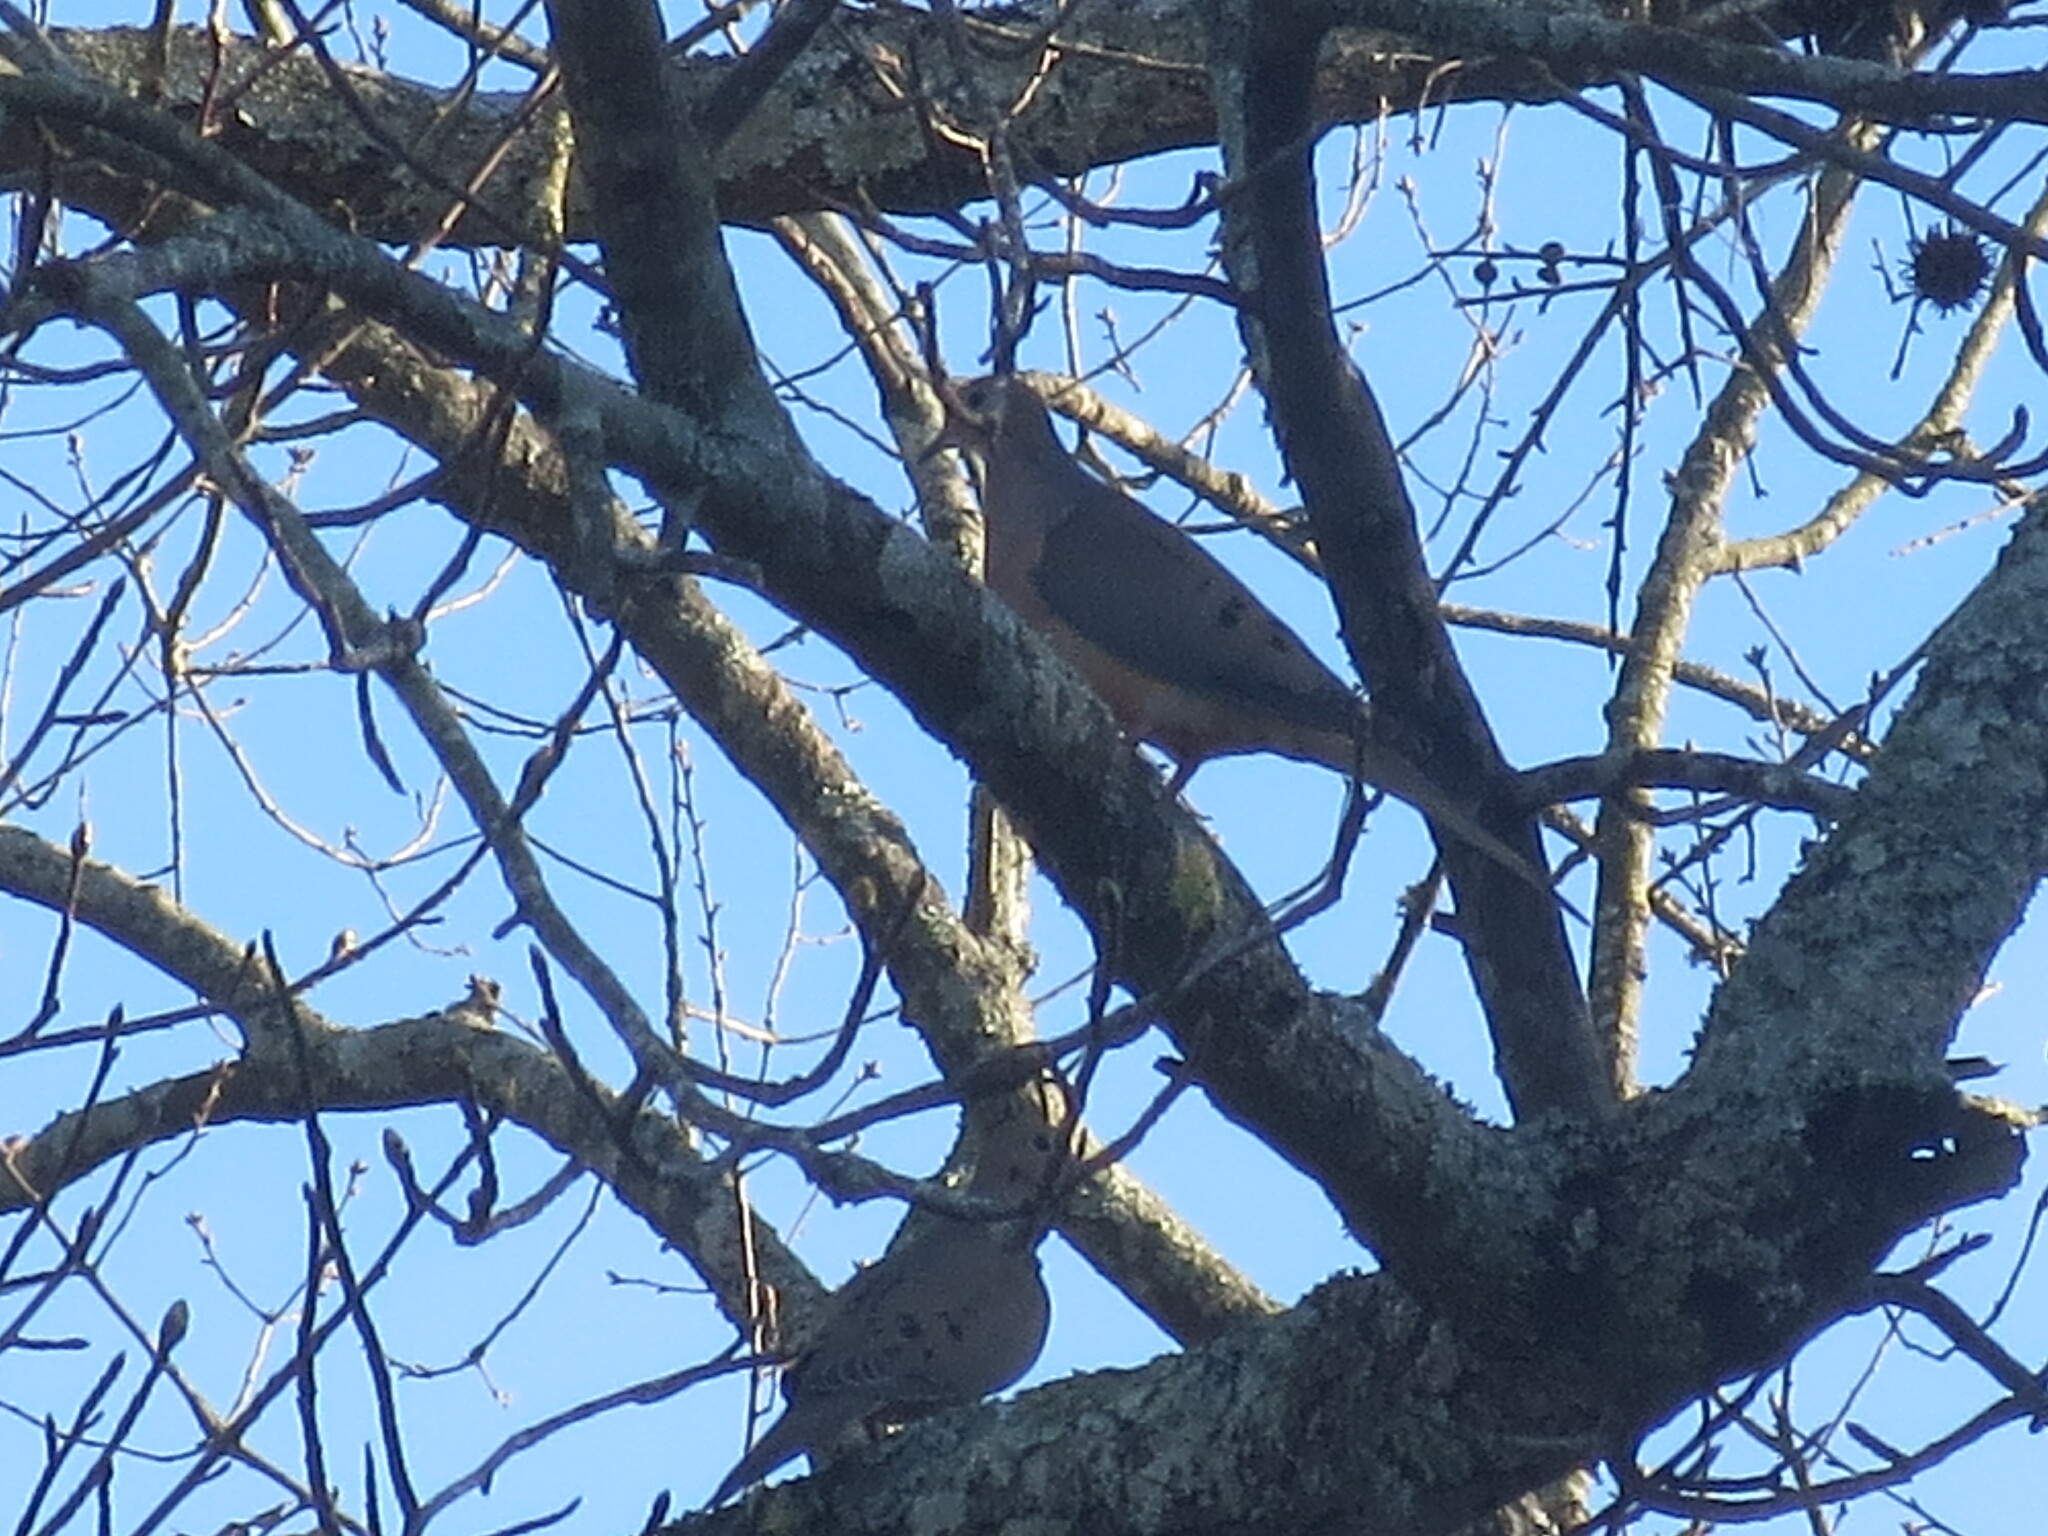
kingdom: Animalia
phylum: Chordata
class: Aves
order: Columbiformes
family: Columbidae
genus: Zenaida
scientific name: Zenaida macroura
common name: Mourning dove
